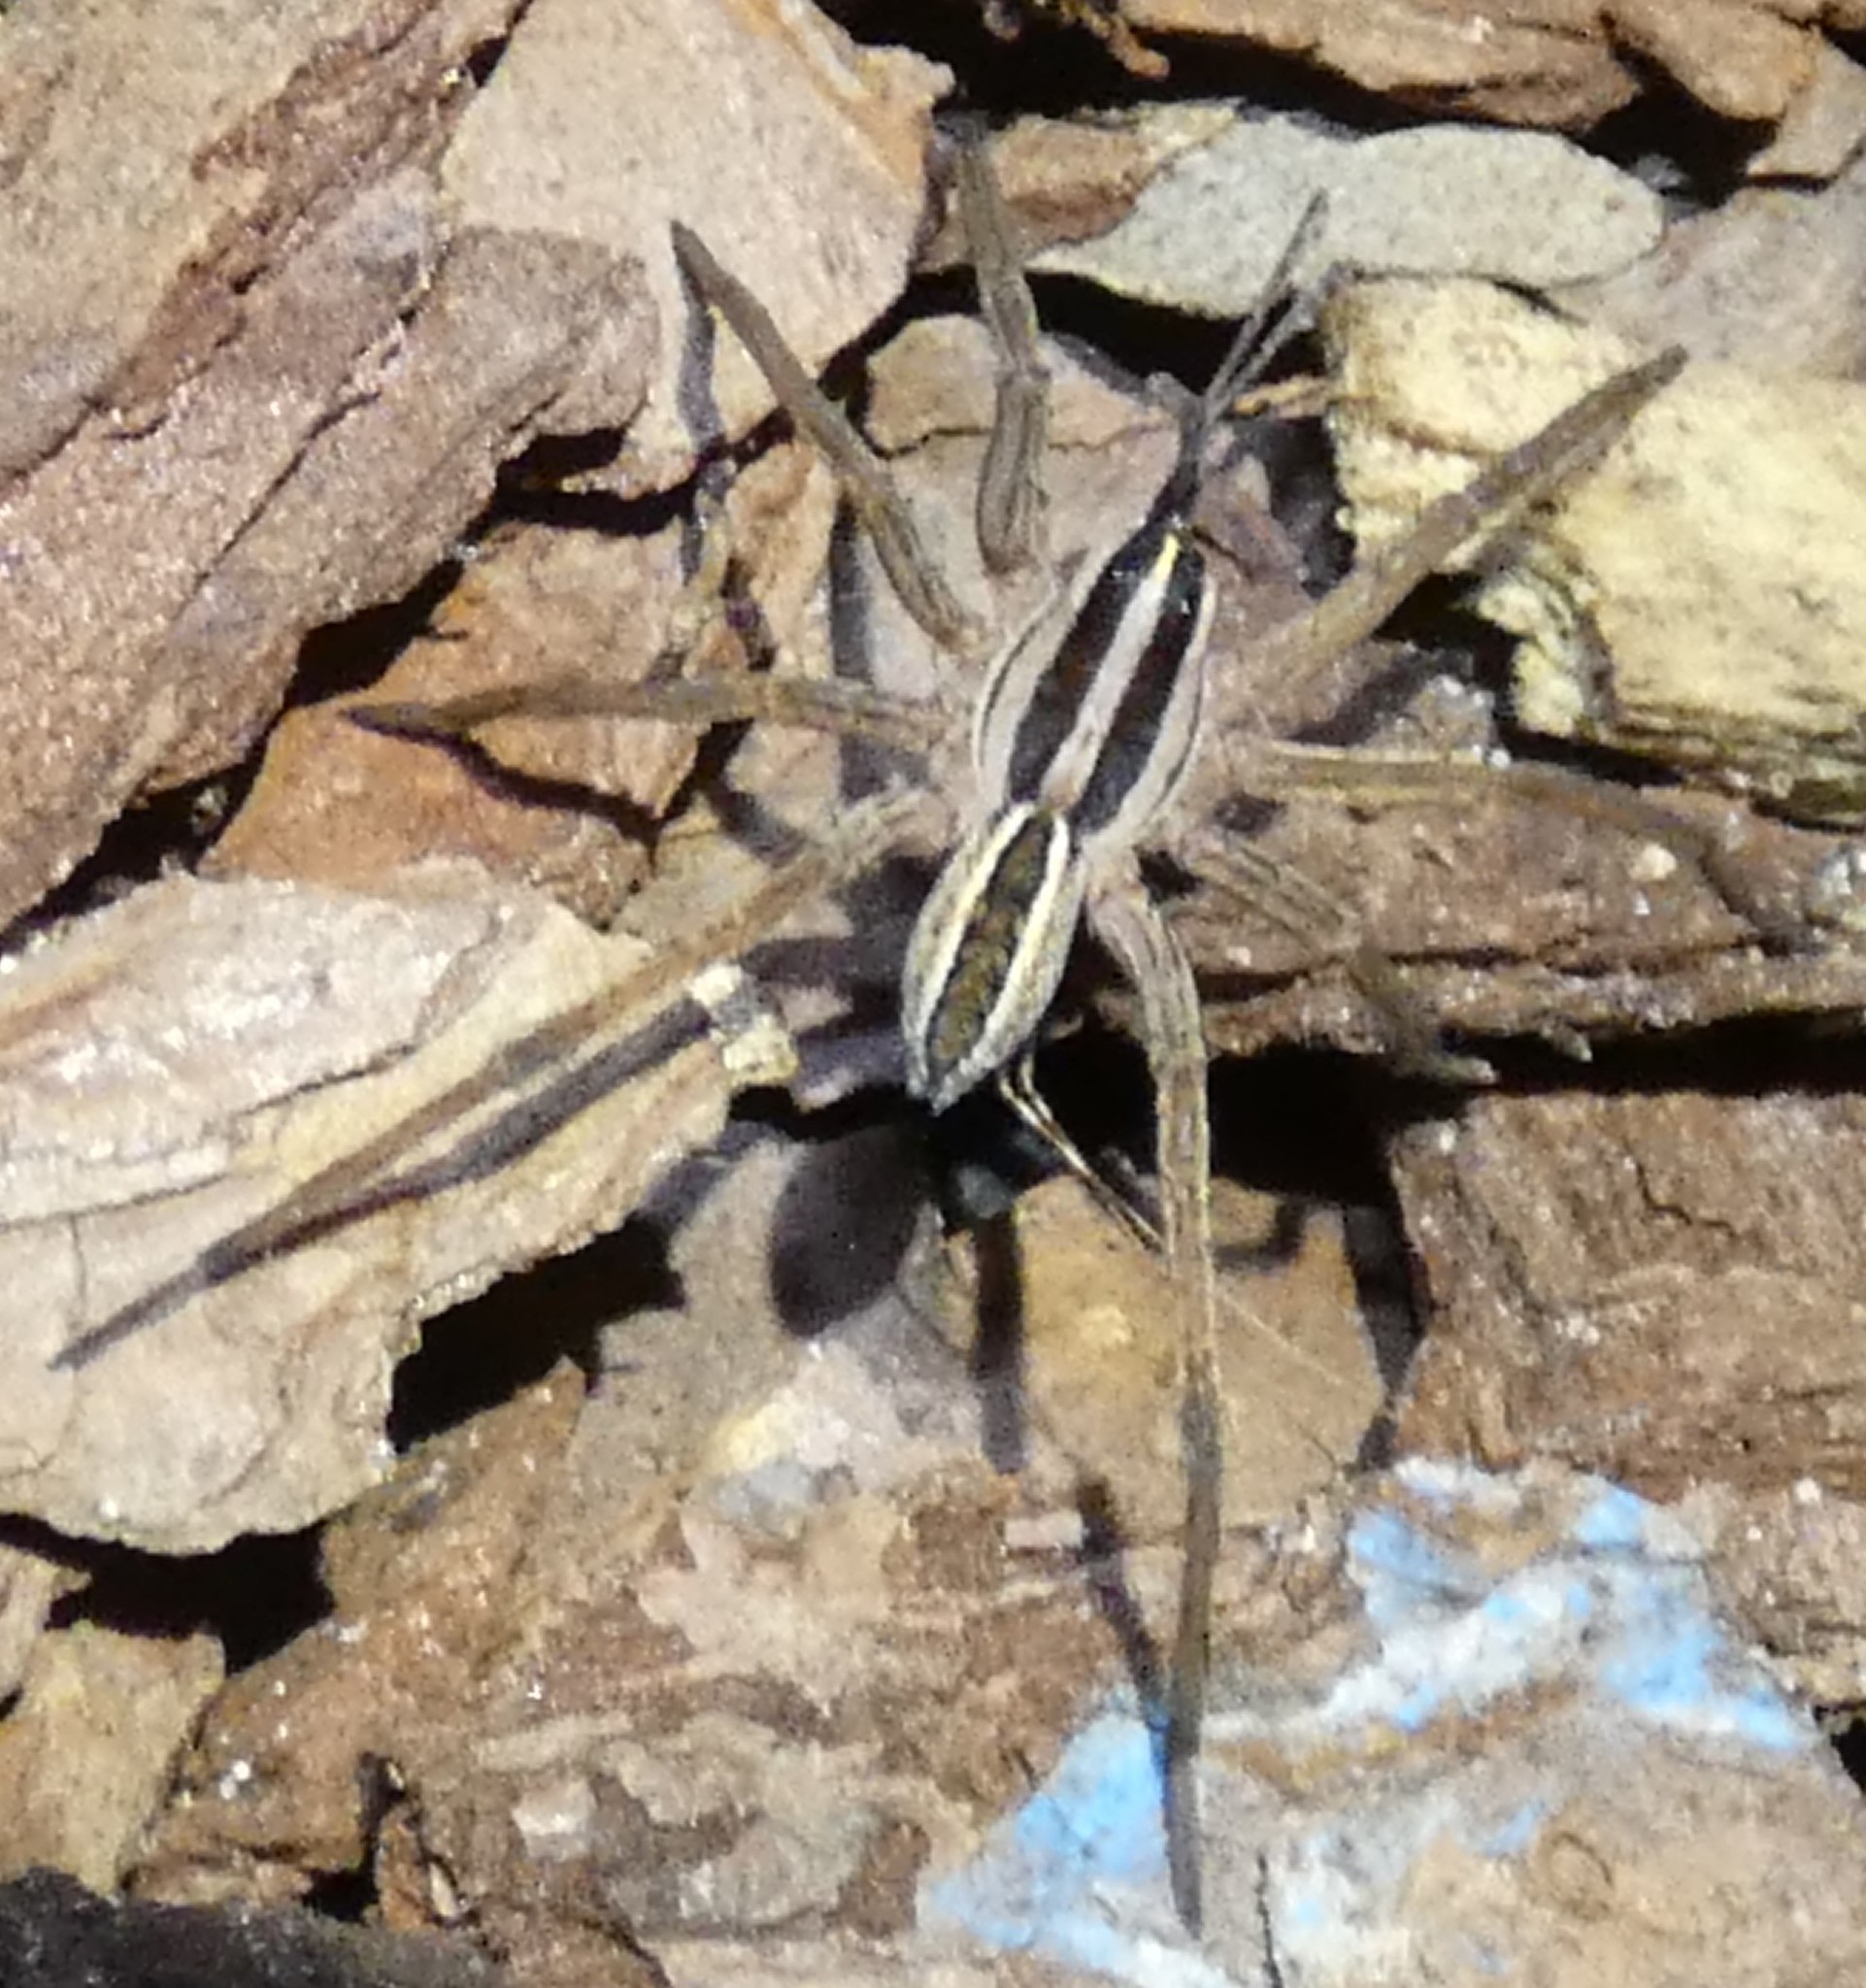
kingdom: Animalia
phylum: Arthropoda
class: Arachnida
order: Araneae
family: Lycosidae
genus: Rabidosa
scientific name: Rabidosa rabida
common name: Rabid wolf spider
